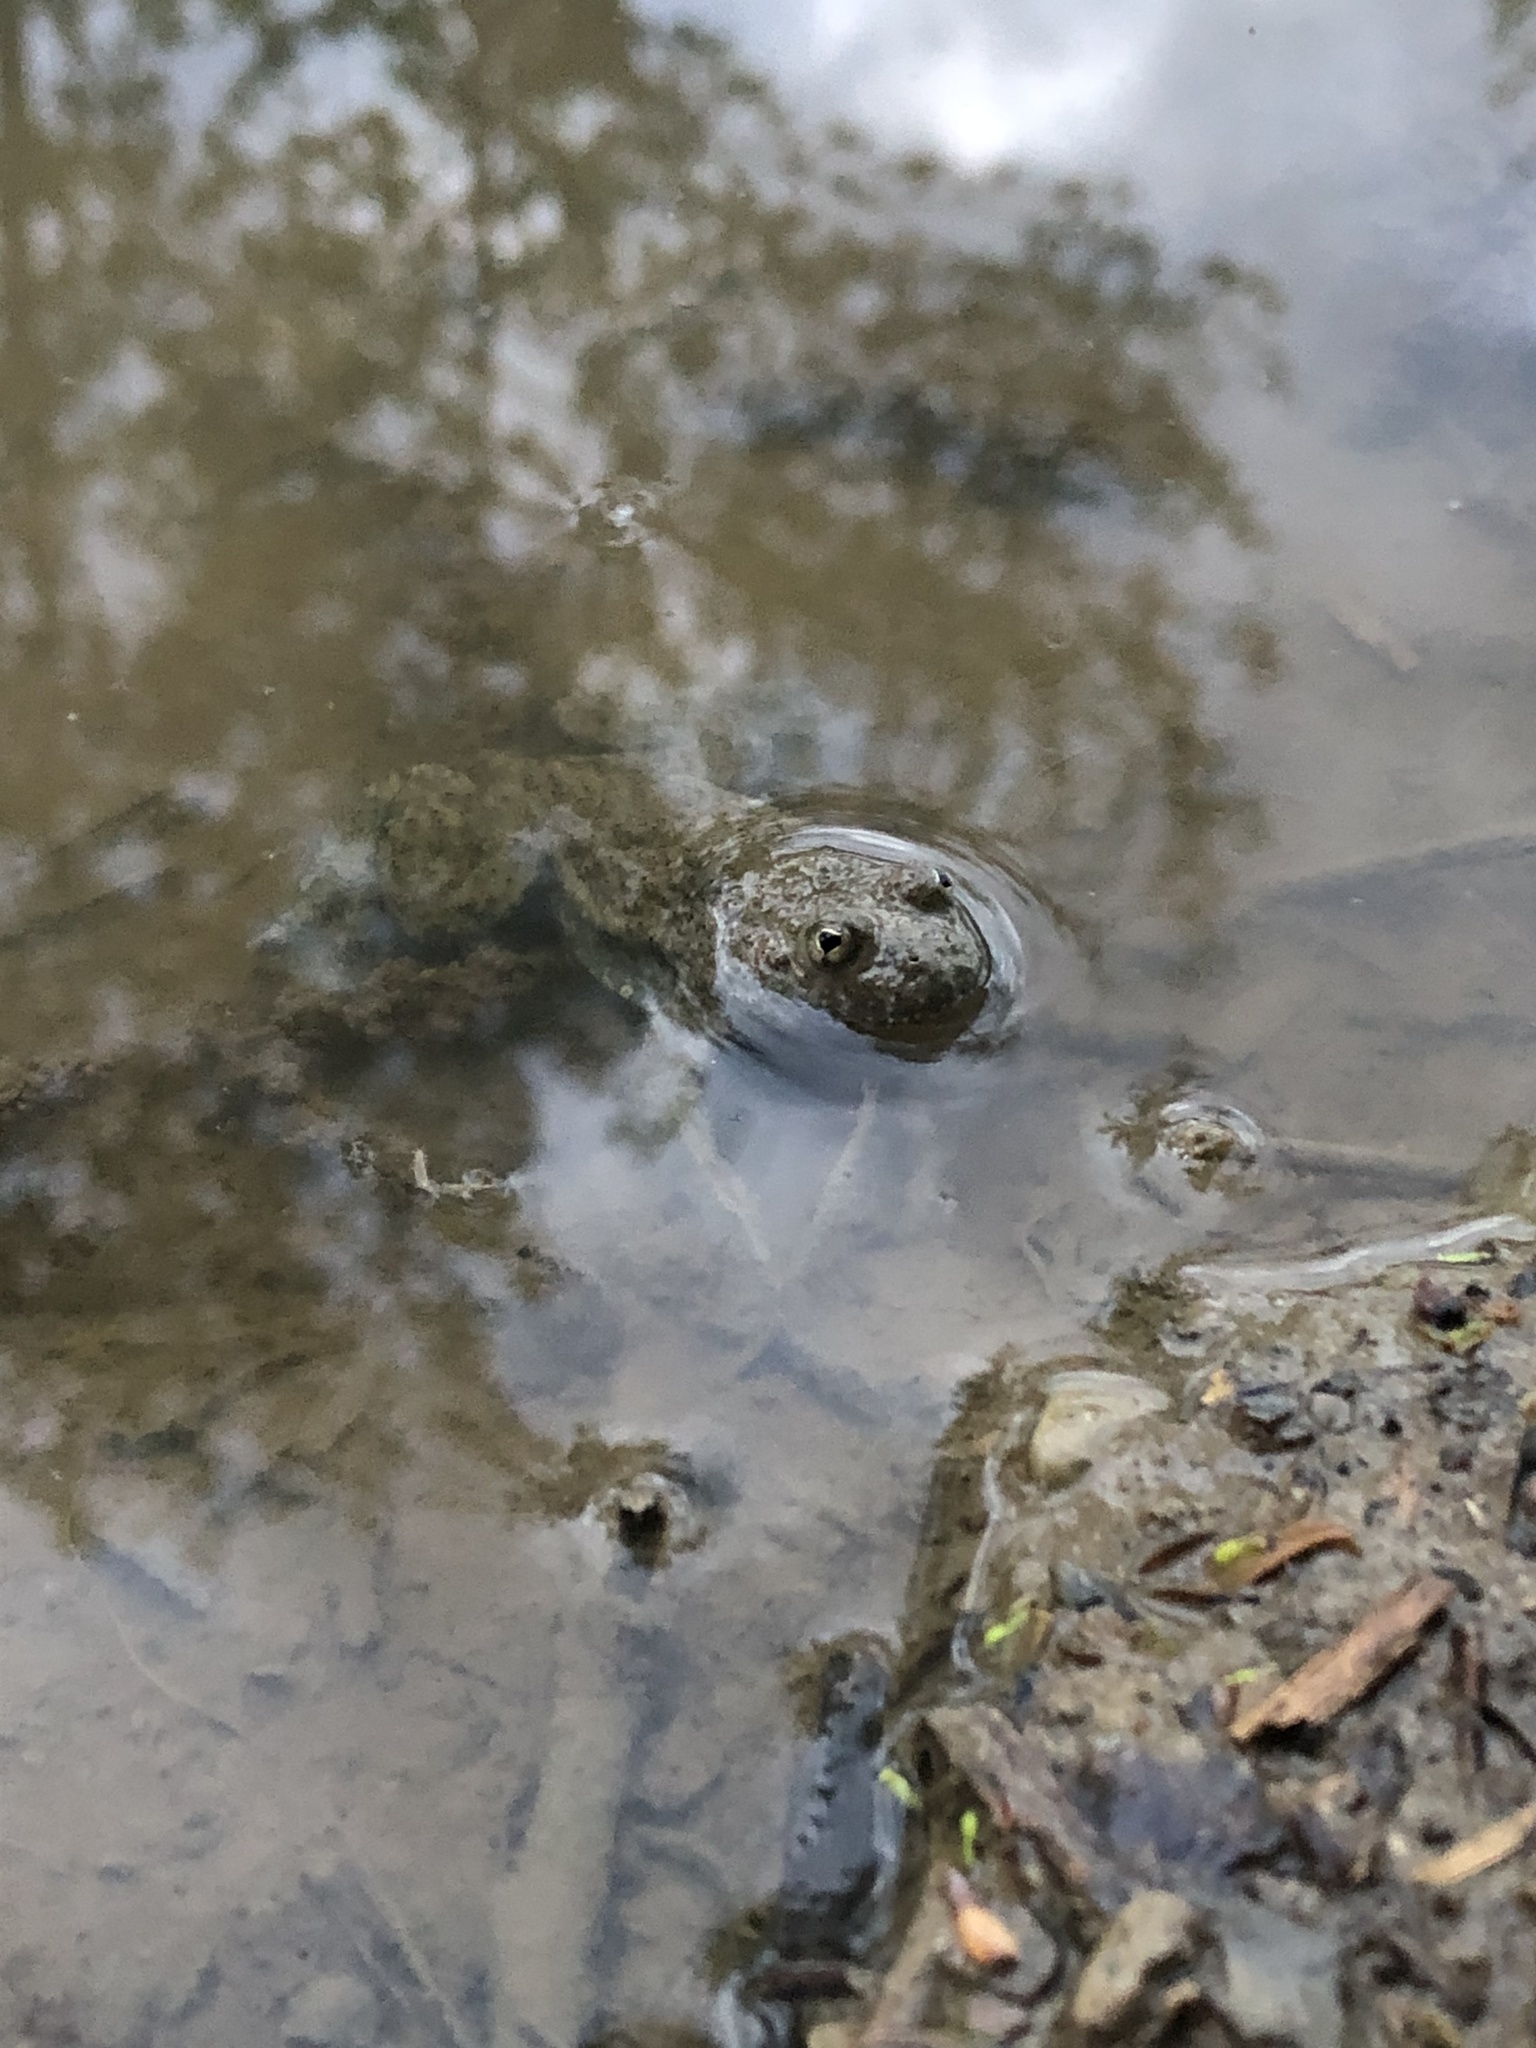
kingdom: Animalia
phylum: Chordata
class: Amphibia
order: Anura
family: Bombinatoridae
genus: Bombina
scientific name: Bombina variegata
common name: Yellow-bellied toad
